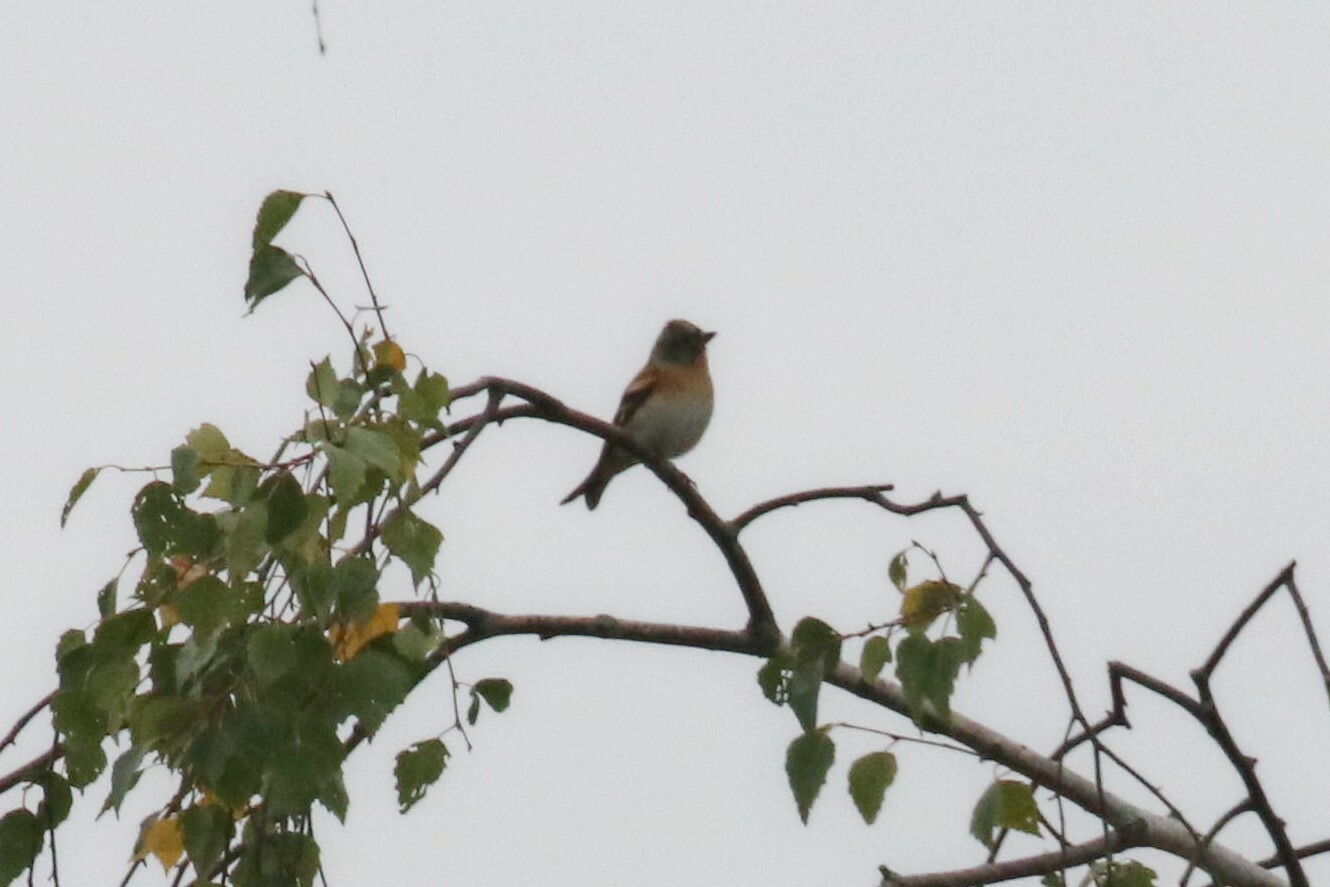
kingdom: Animalia
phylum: Chordata
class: Aves
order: Passeriformes
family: Fringillidae
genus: Fringilla
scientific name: Fringilla montifringilla
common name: Brambling
